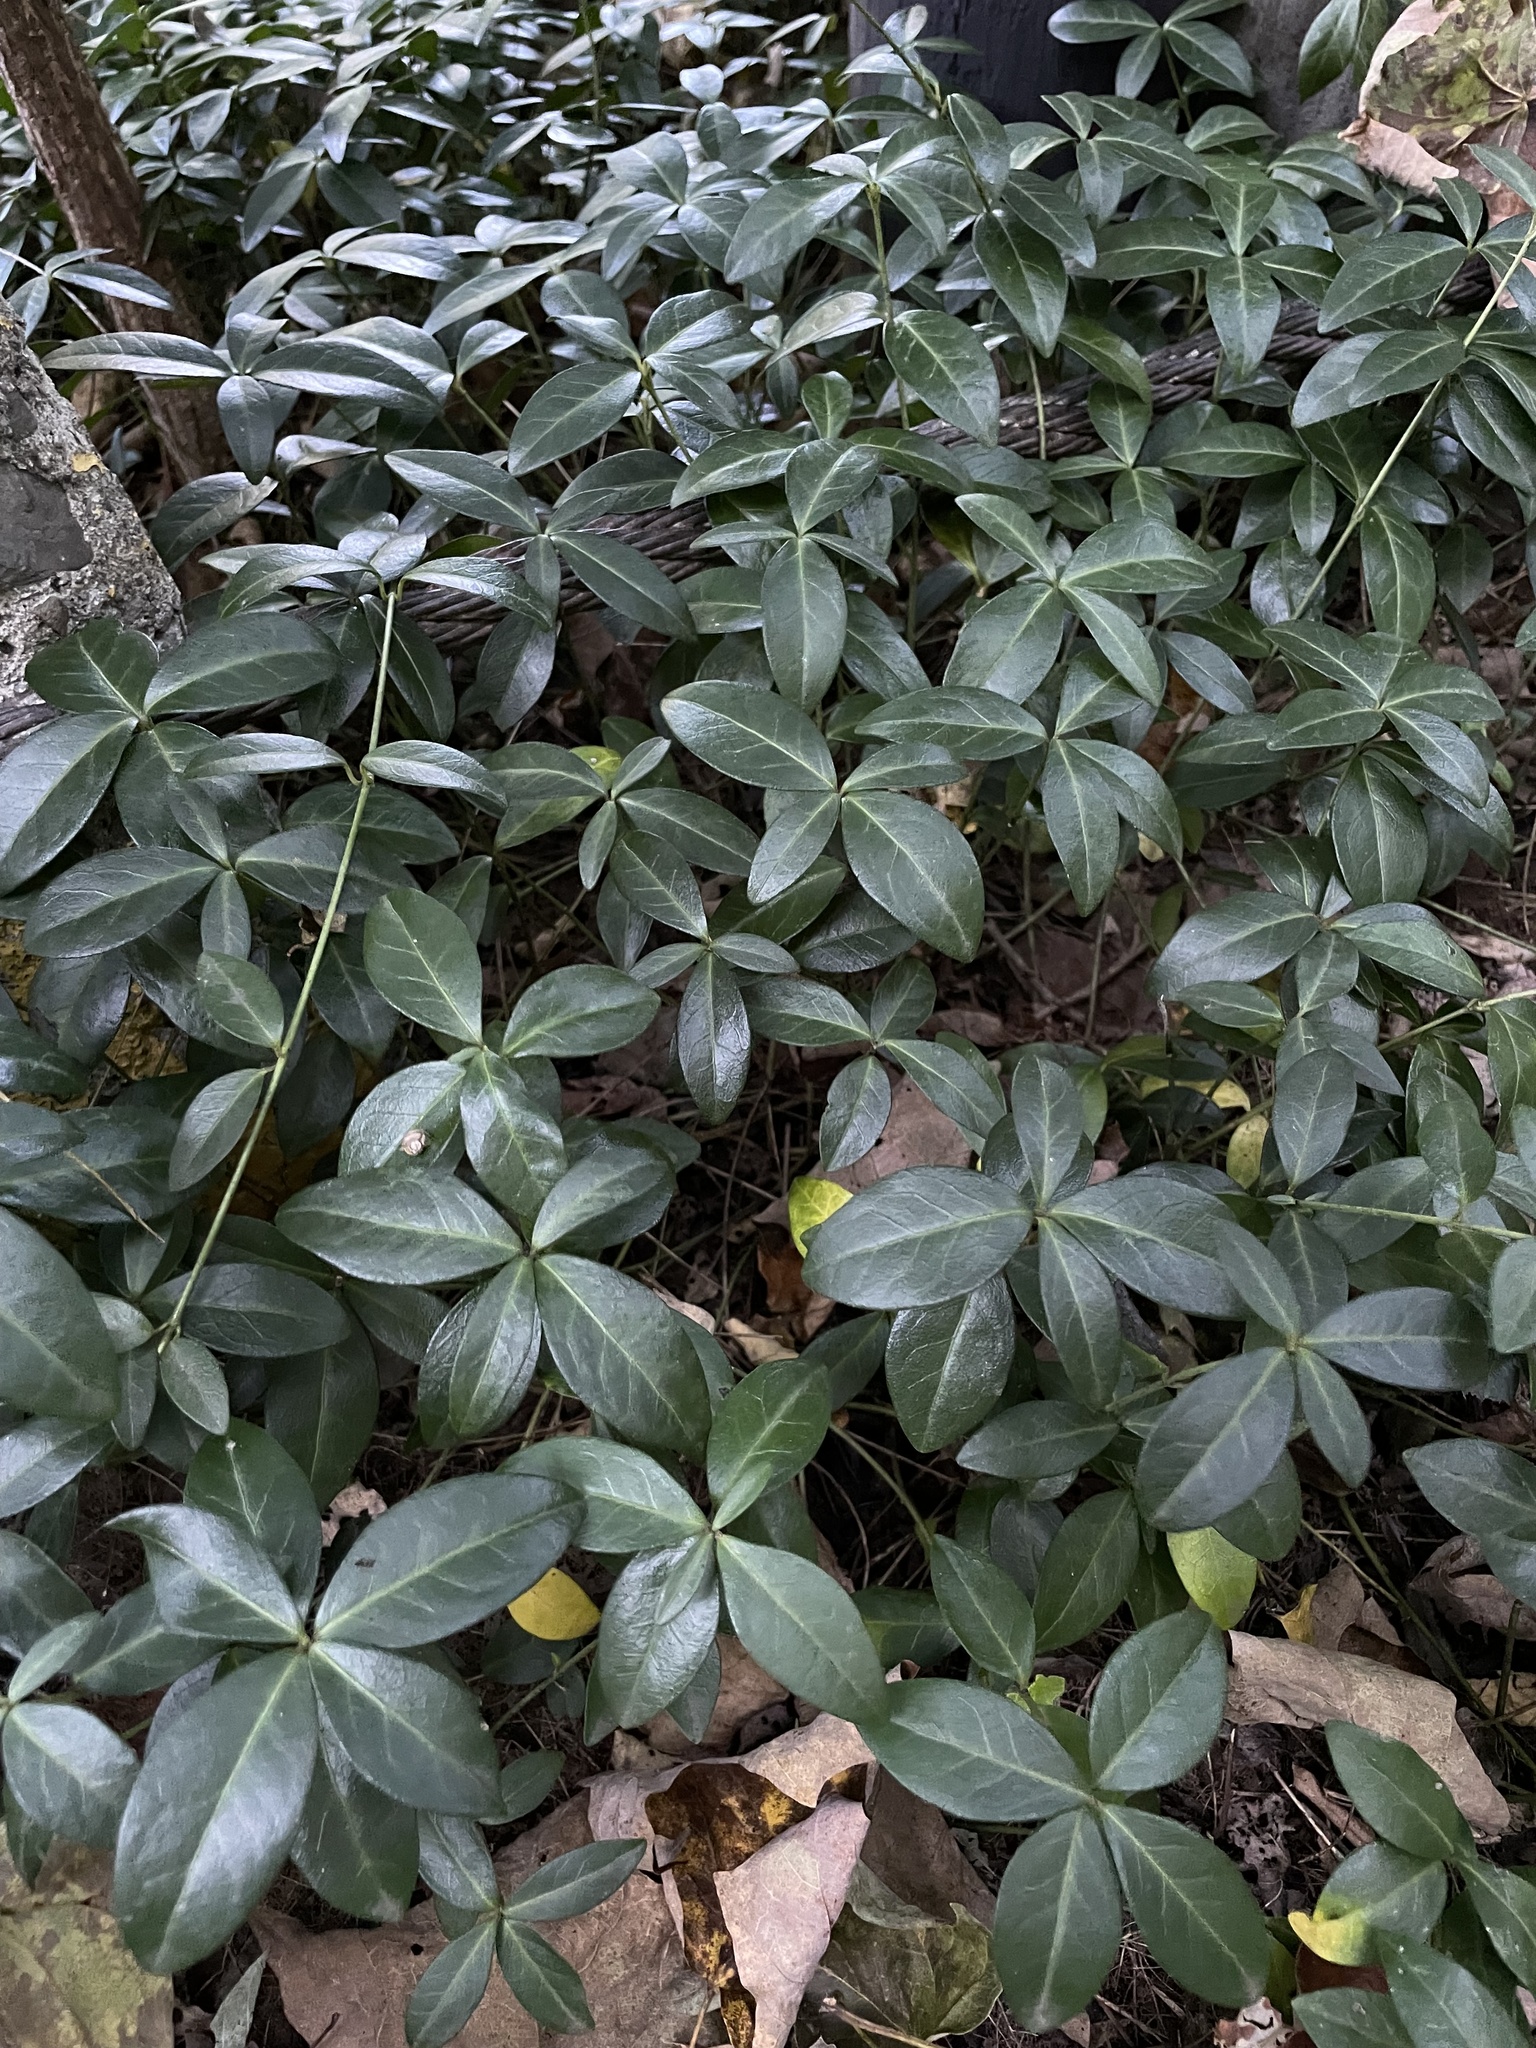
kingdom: Plantae
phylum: Tracheophyta
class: Magnoliopsida
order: Gentianales
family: Apocynaceae
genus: Vinca
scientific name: Vinca minor
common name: Lesser periwinkle
